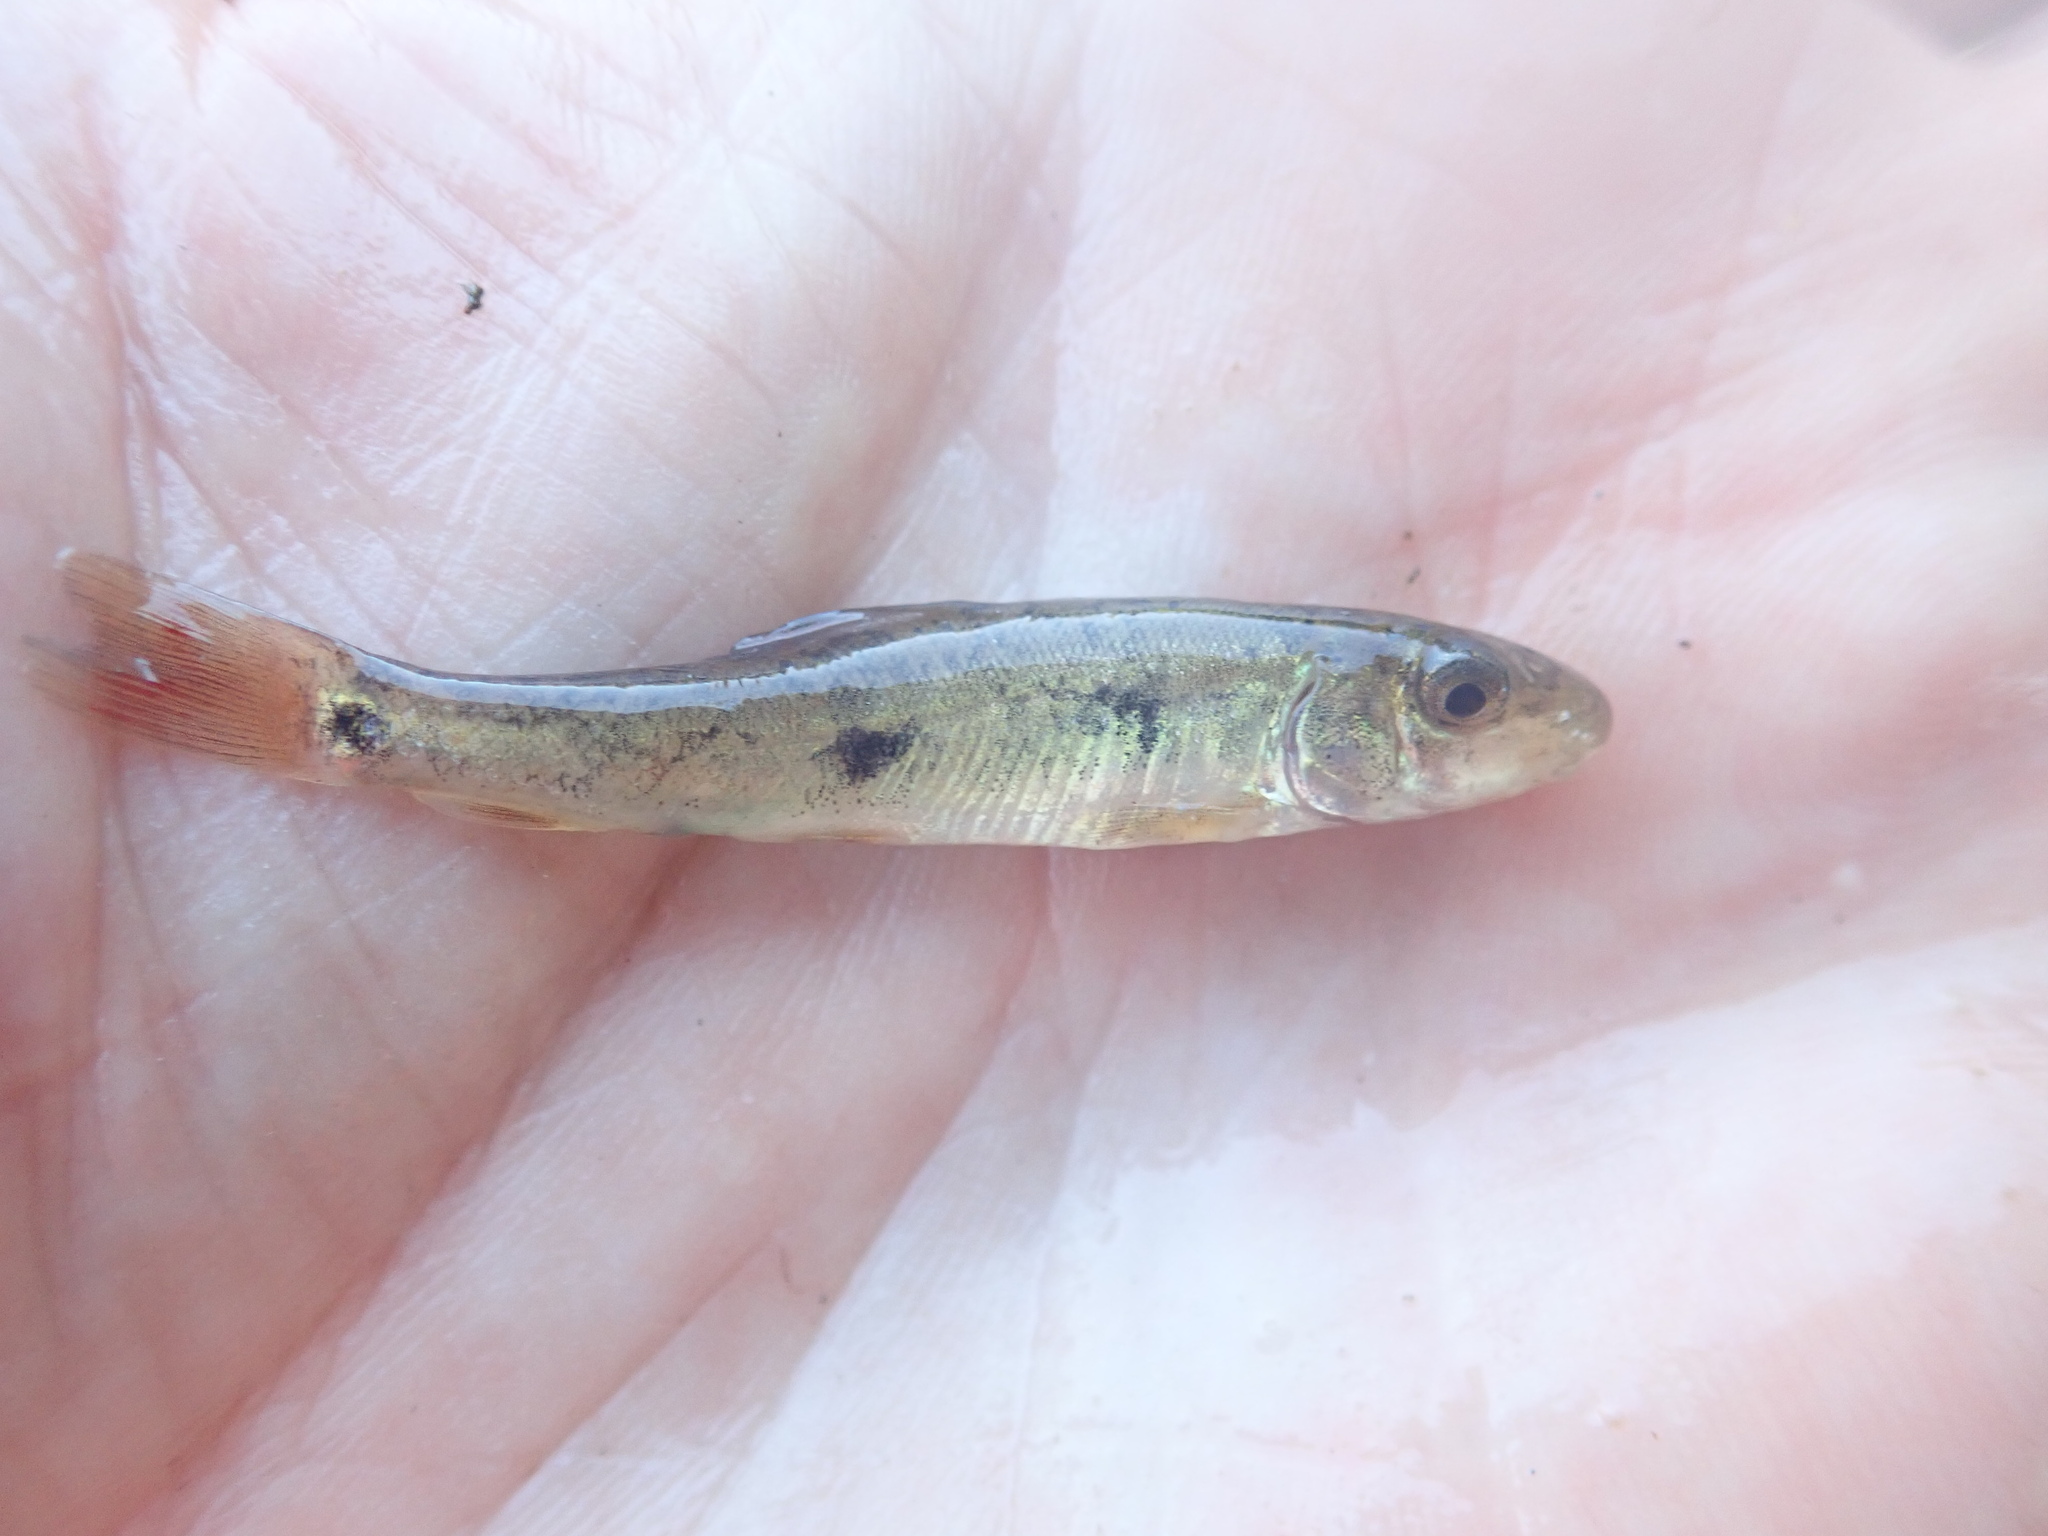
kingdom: Animalia
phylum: Chordata
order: Cypriniformes
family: Catostomidae
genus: Catostomus
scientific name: Catostomus commersonii
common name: White sucker
